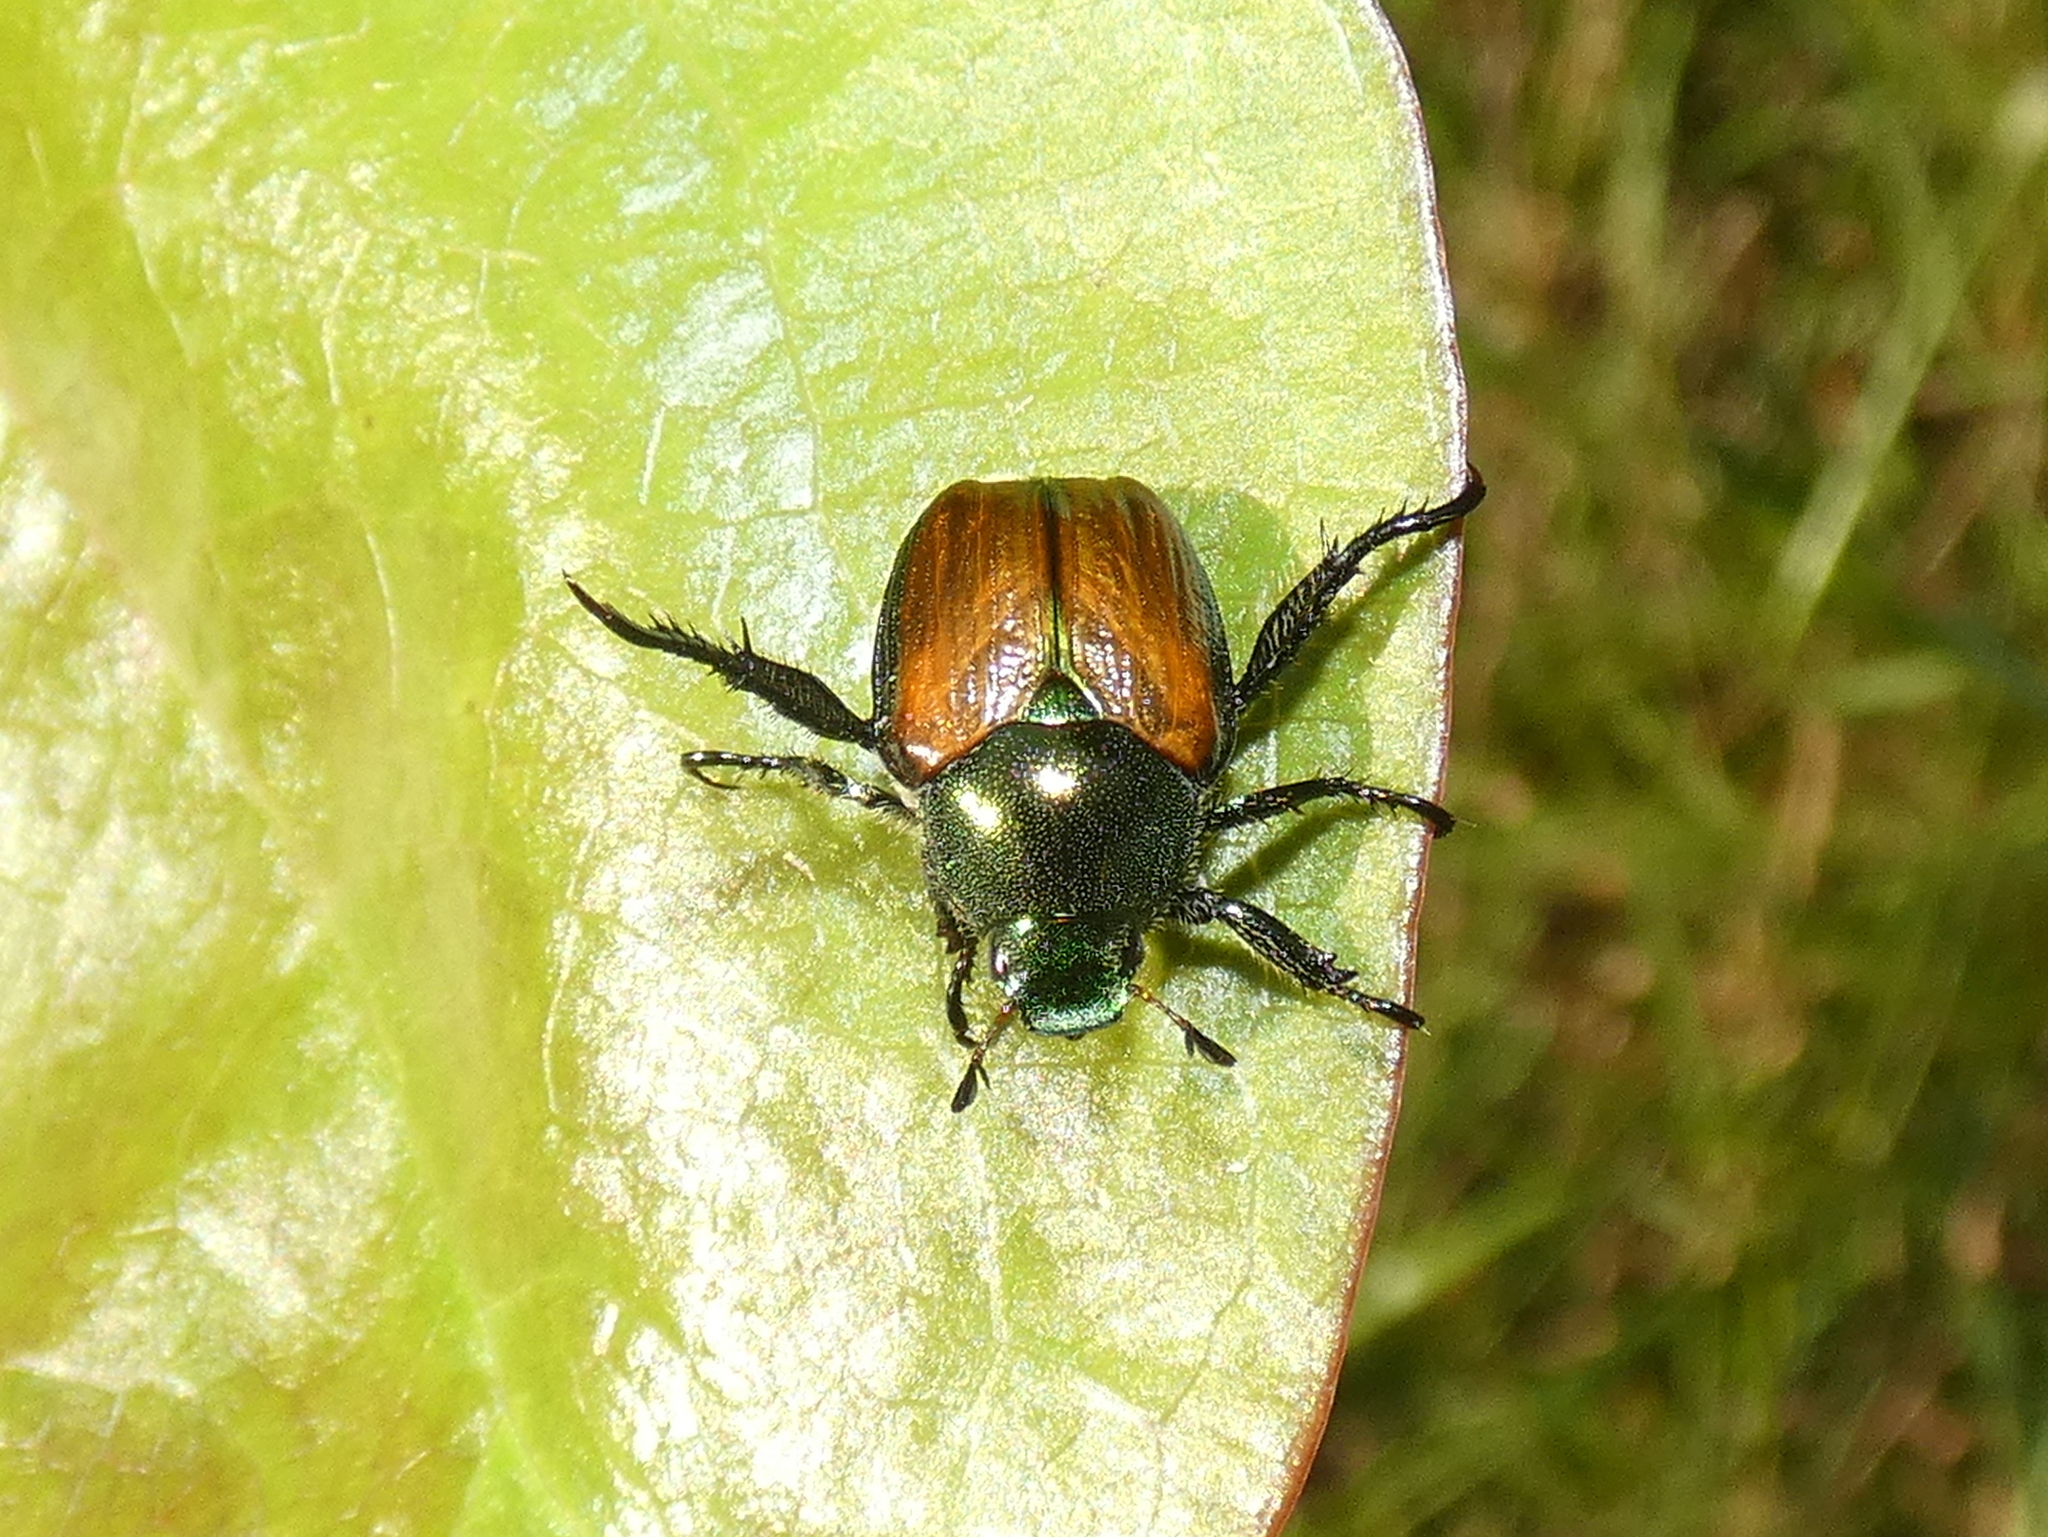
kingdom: Animalia
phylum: Arthropoda
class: Insecta
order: Coleoptera
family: Scarabaeidae
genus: Popillia
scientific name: Popillia japonica
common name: Japanese beetle
